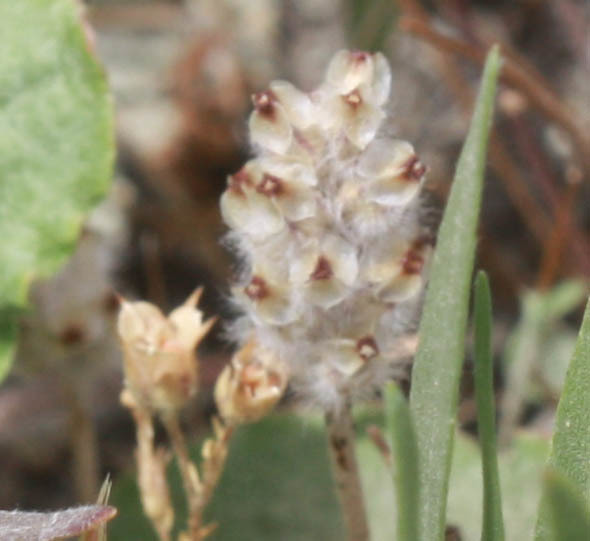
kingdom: Plantae
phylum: Tracheophyta
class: Magnoliopsida
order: Lamiales
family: Plantaginaceae
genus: Plantago
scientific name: Plantago erecta
